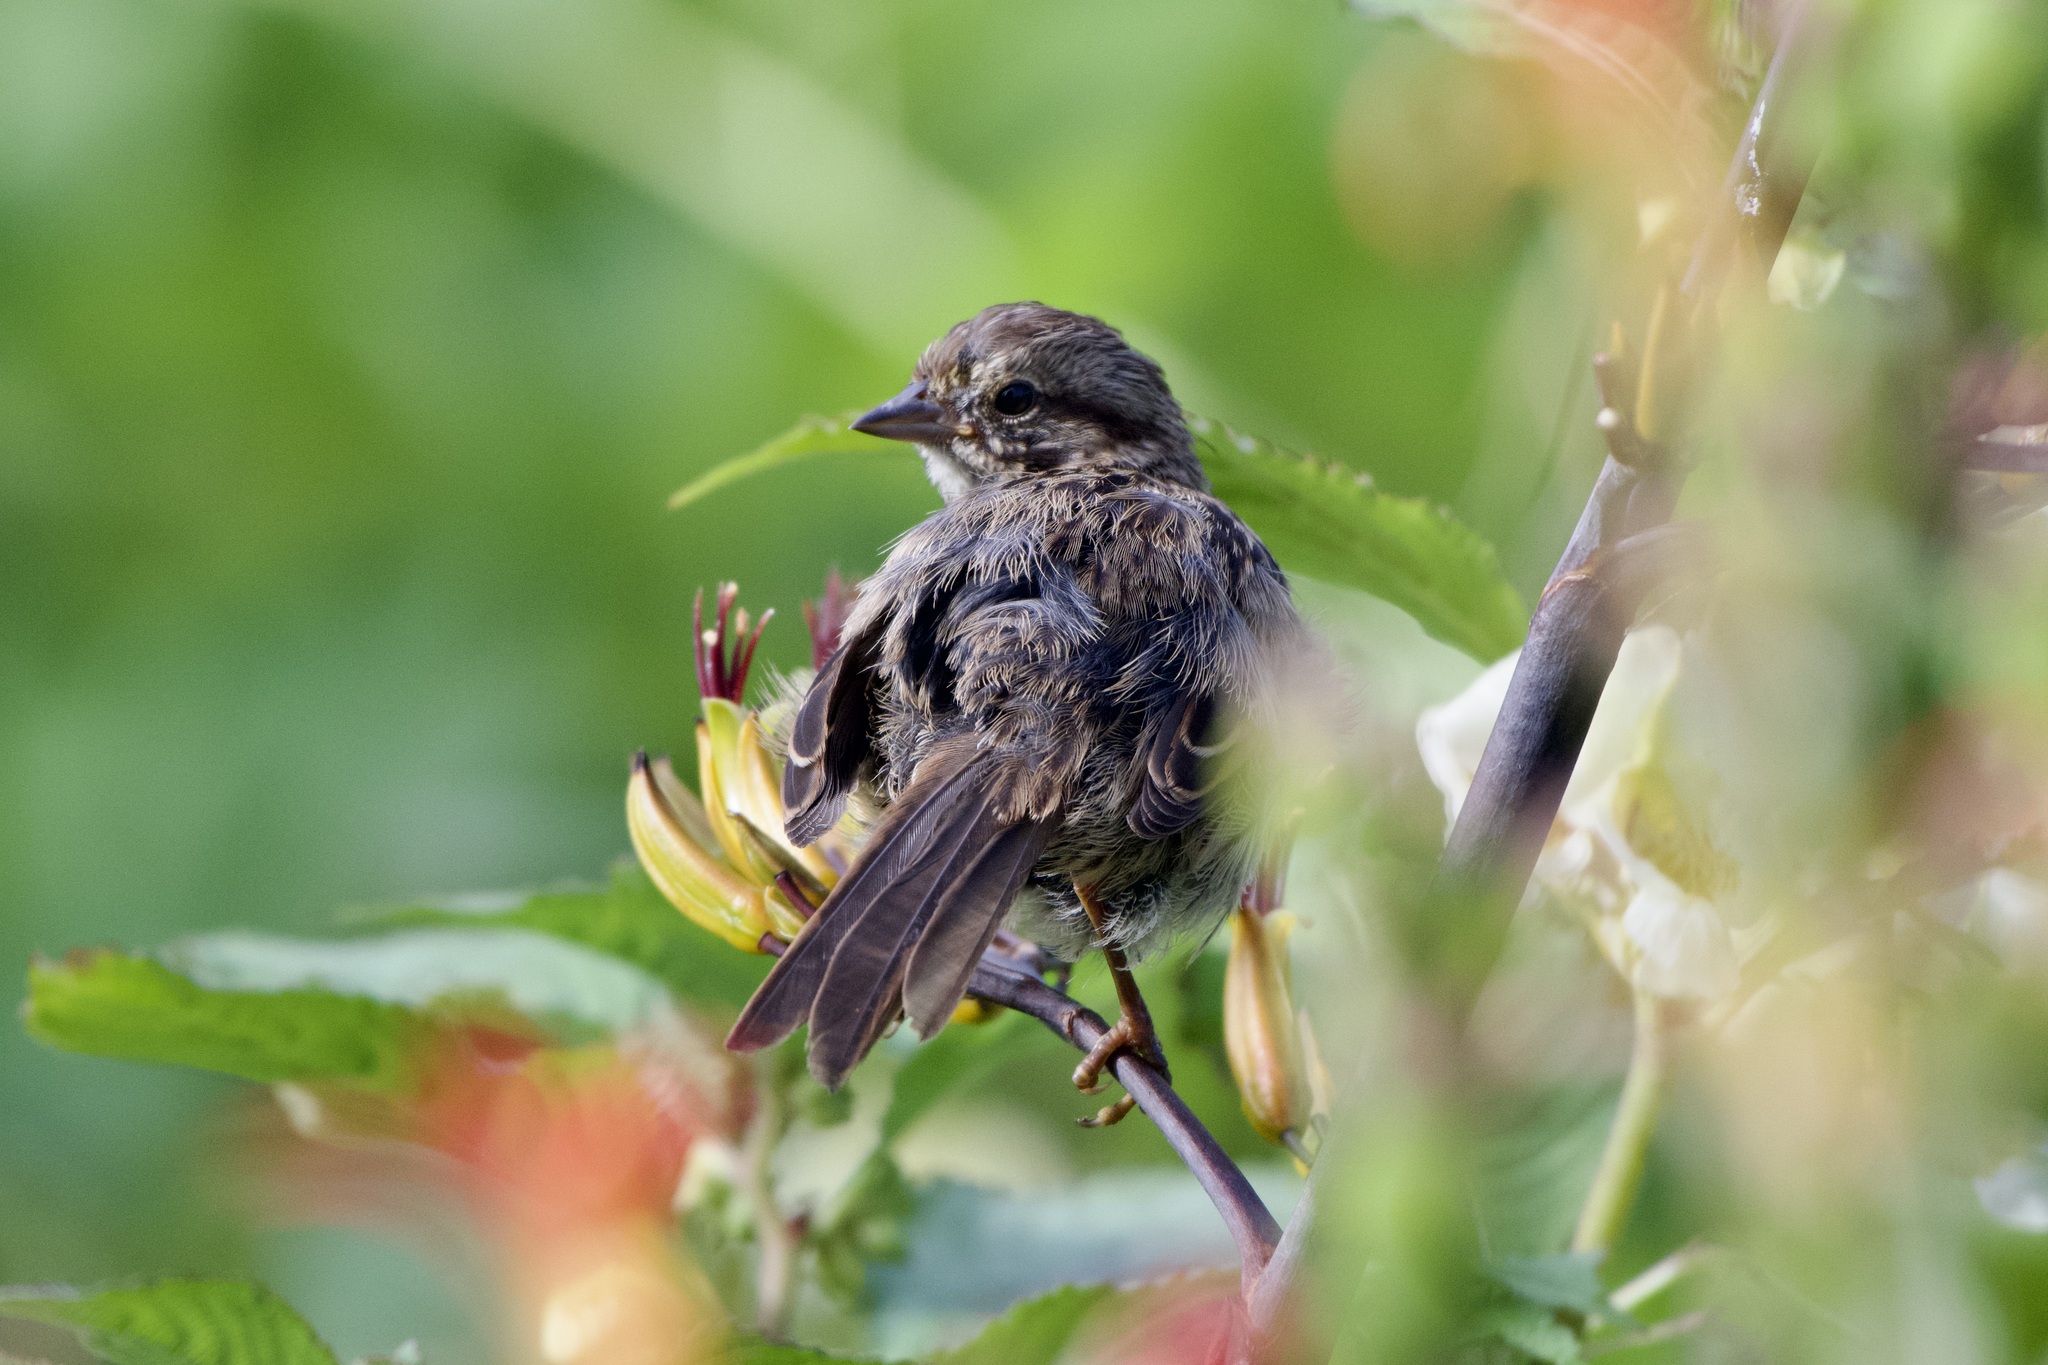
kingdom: Animalia
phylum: Chordata
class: Aves
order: Passeriformes
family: Passerellidae
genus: Melospiza
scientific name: Melospiza melodia
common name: Song sparrow
